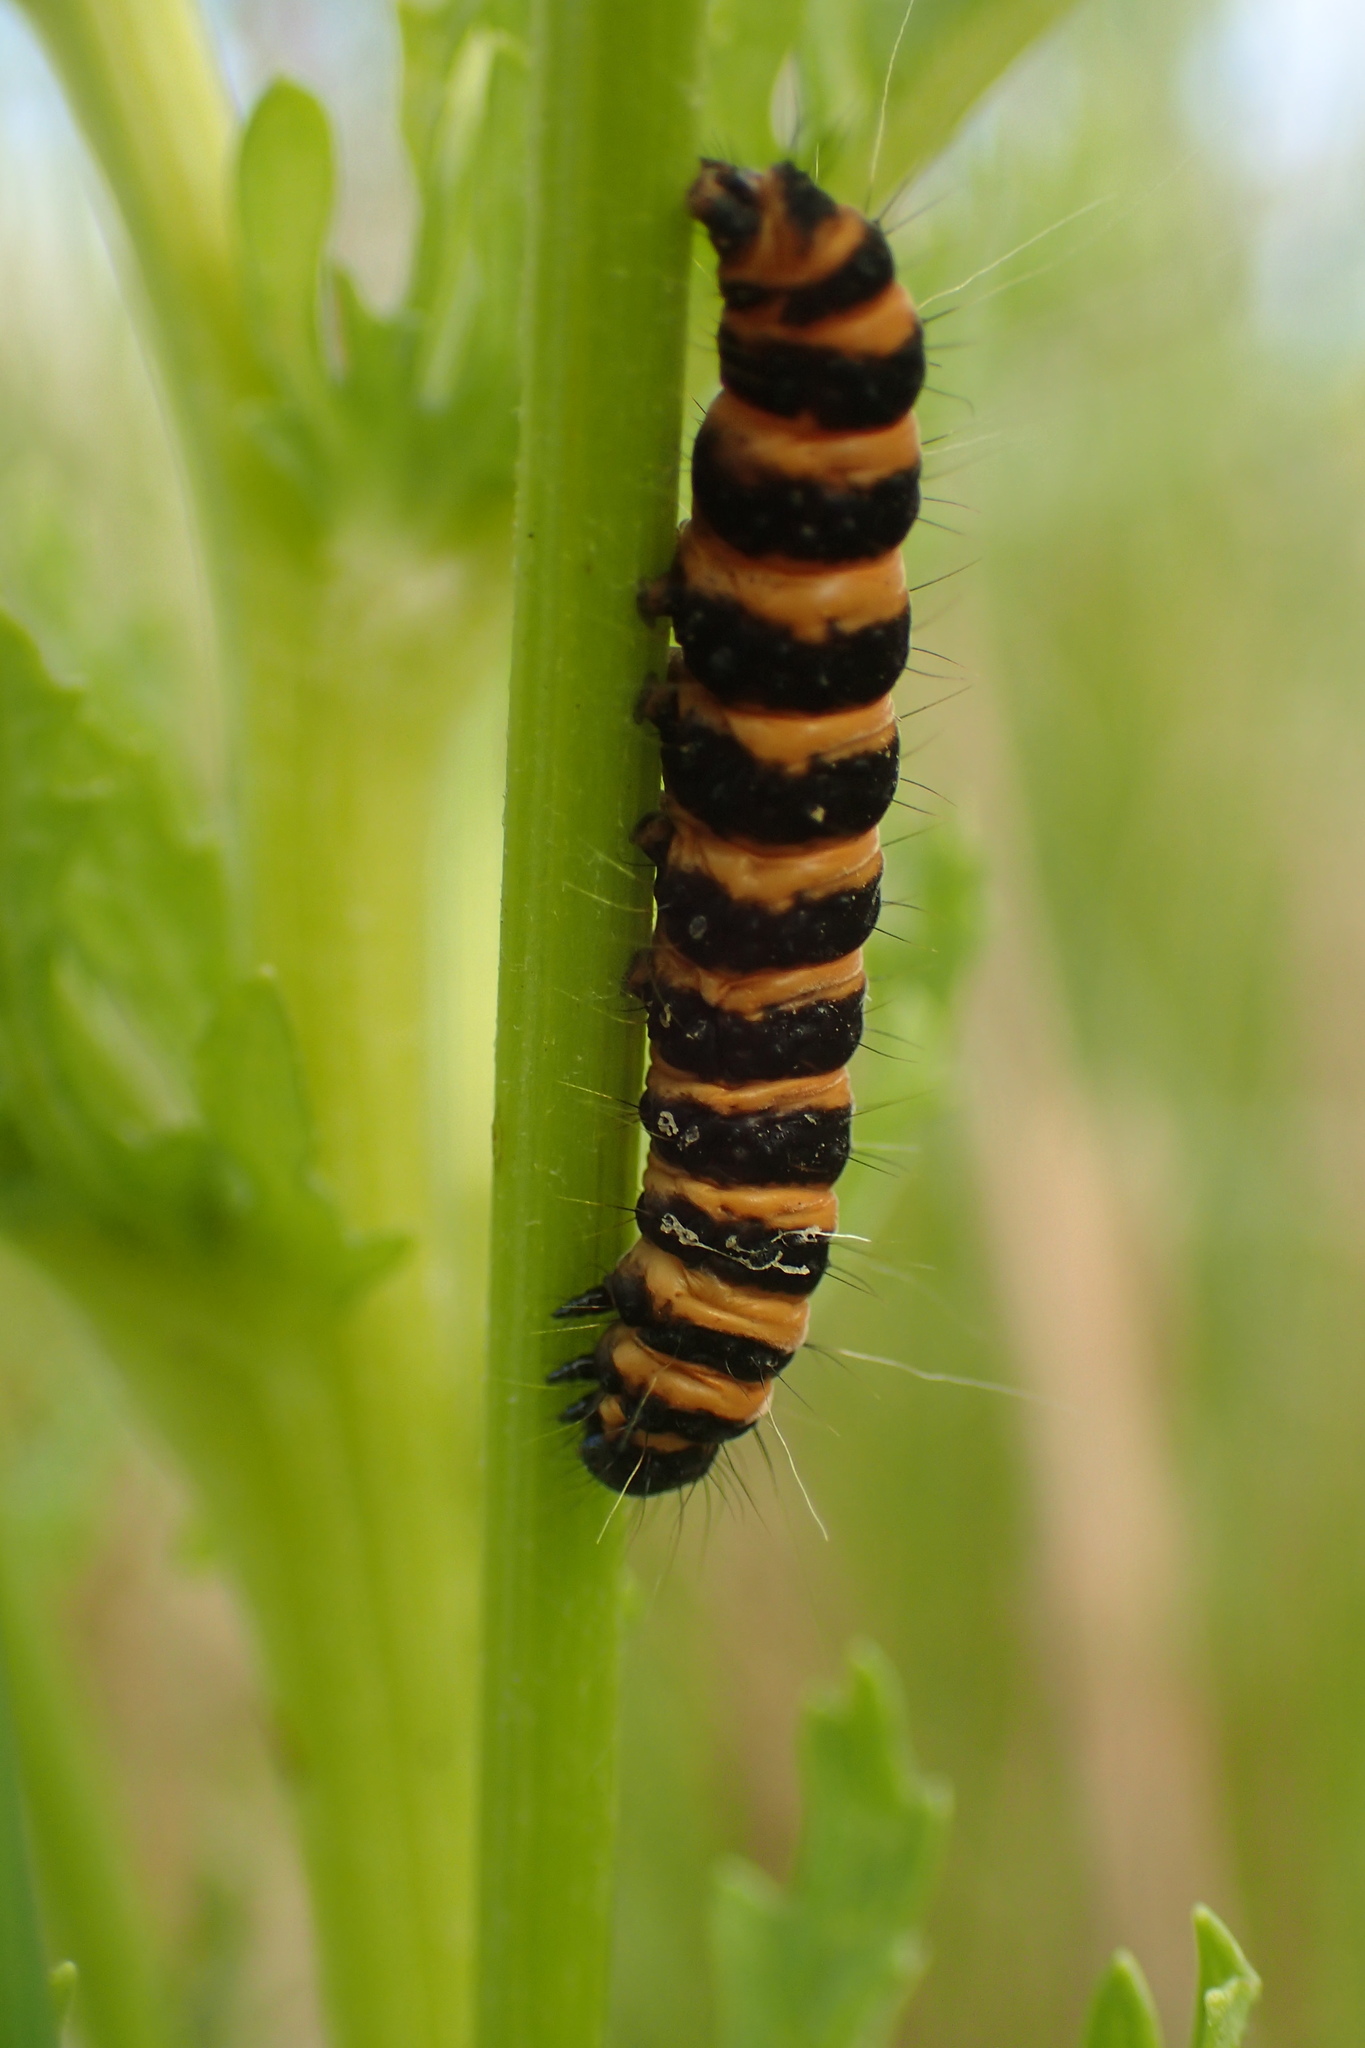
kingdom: Animalia
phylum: Arthropoda
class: Insecta
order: Lepidoptera
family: Erebidae
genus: Tyria
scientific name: Tyria jacobaeae
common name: Cinnabar
